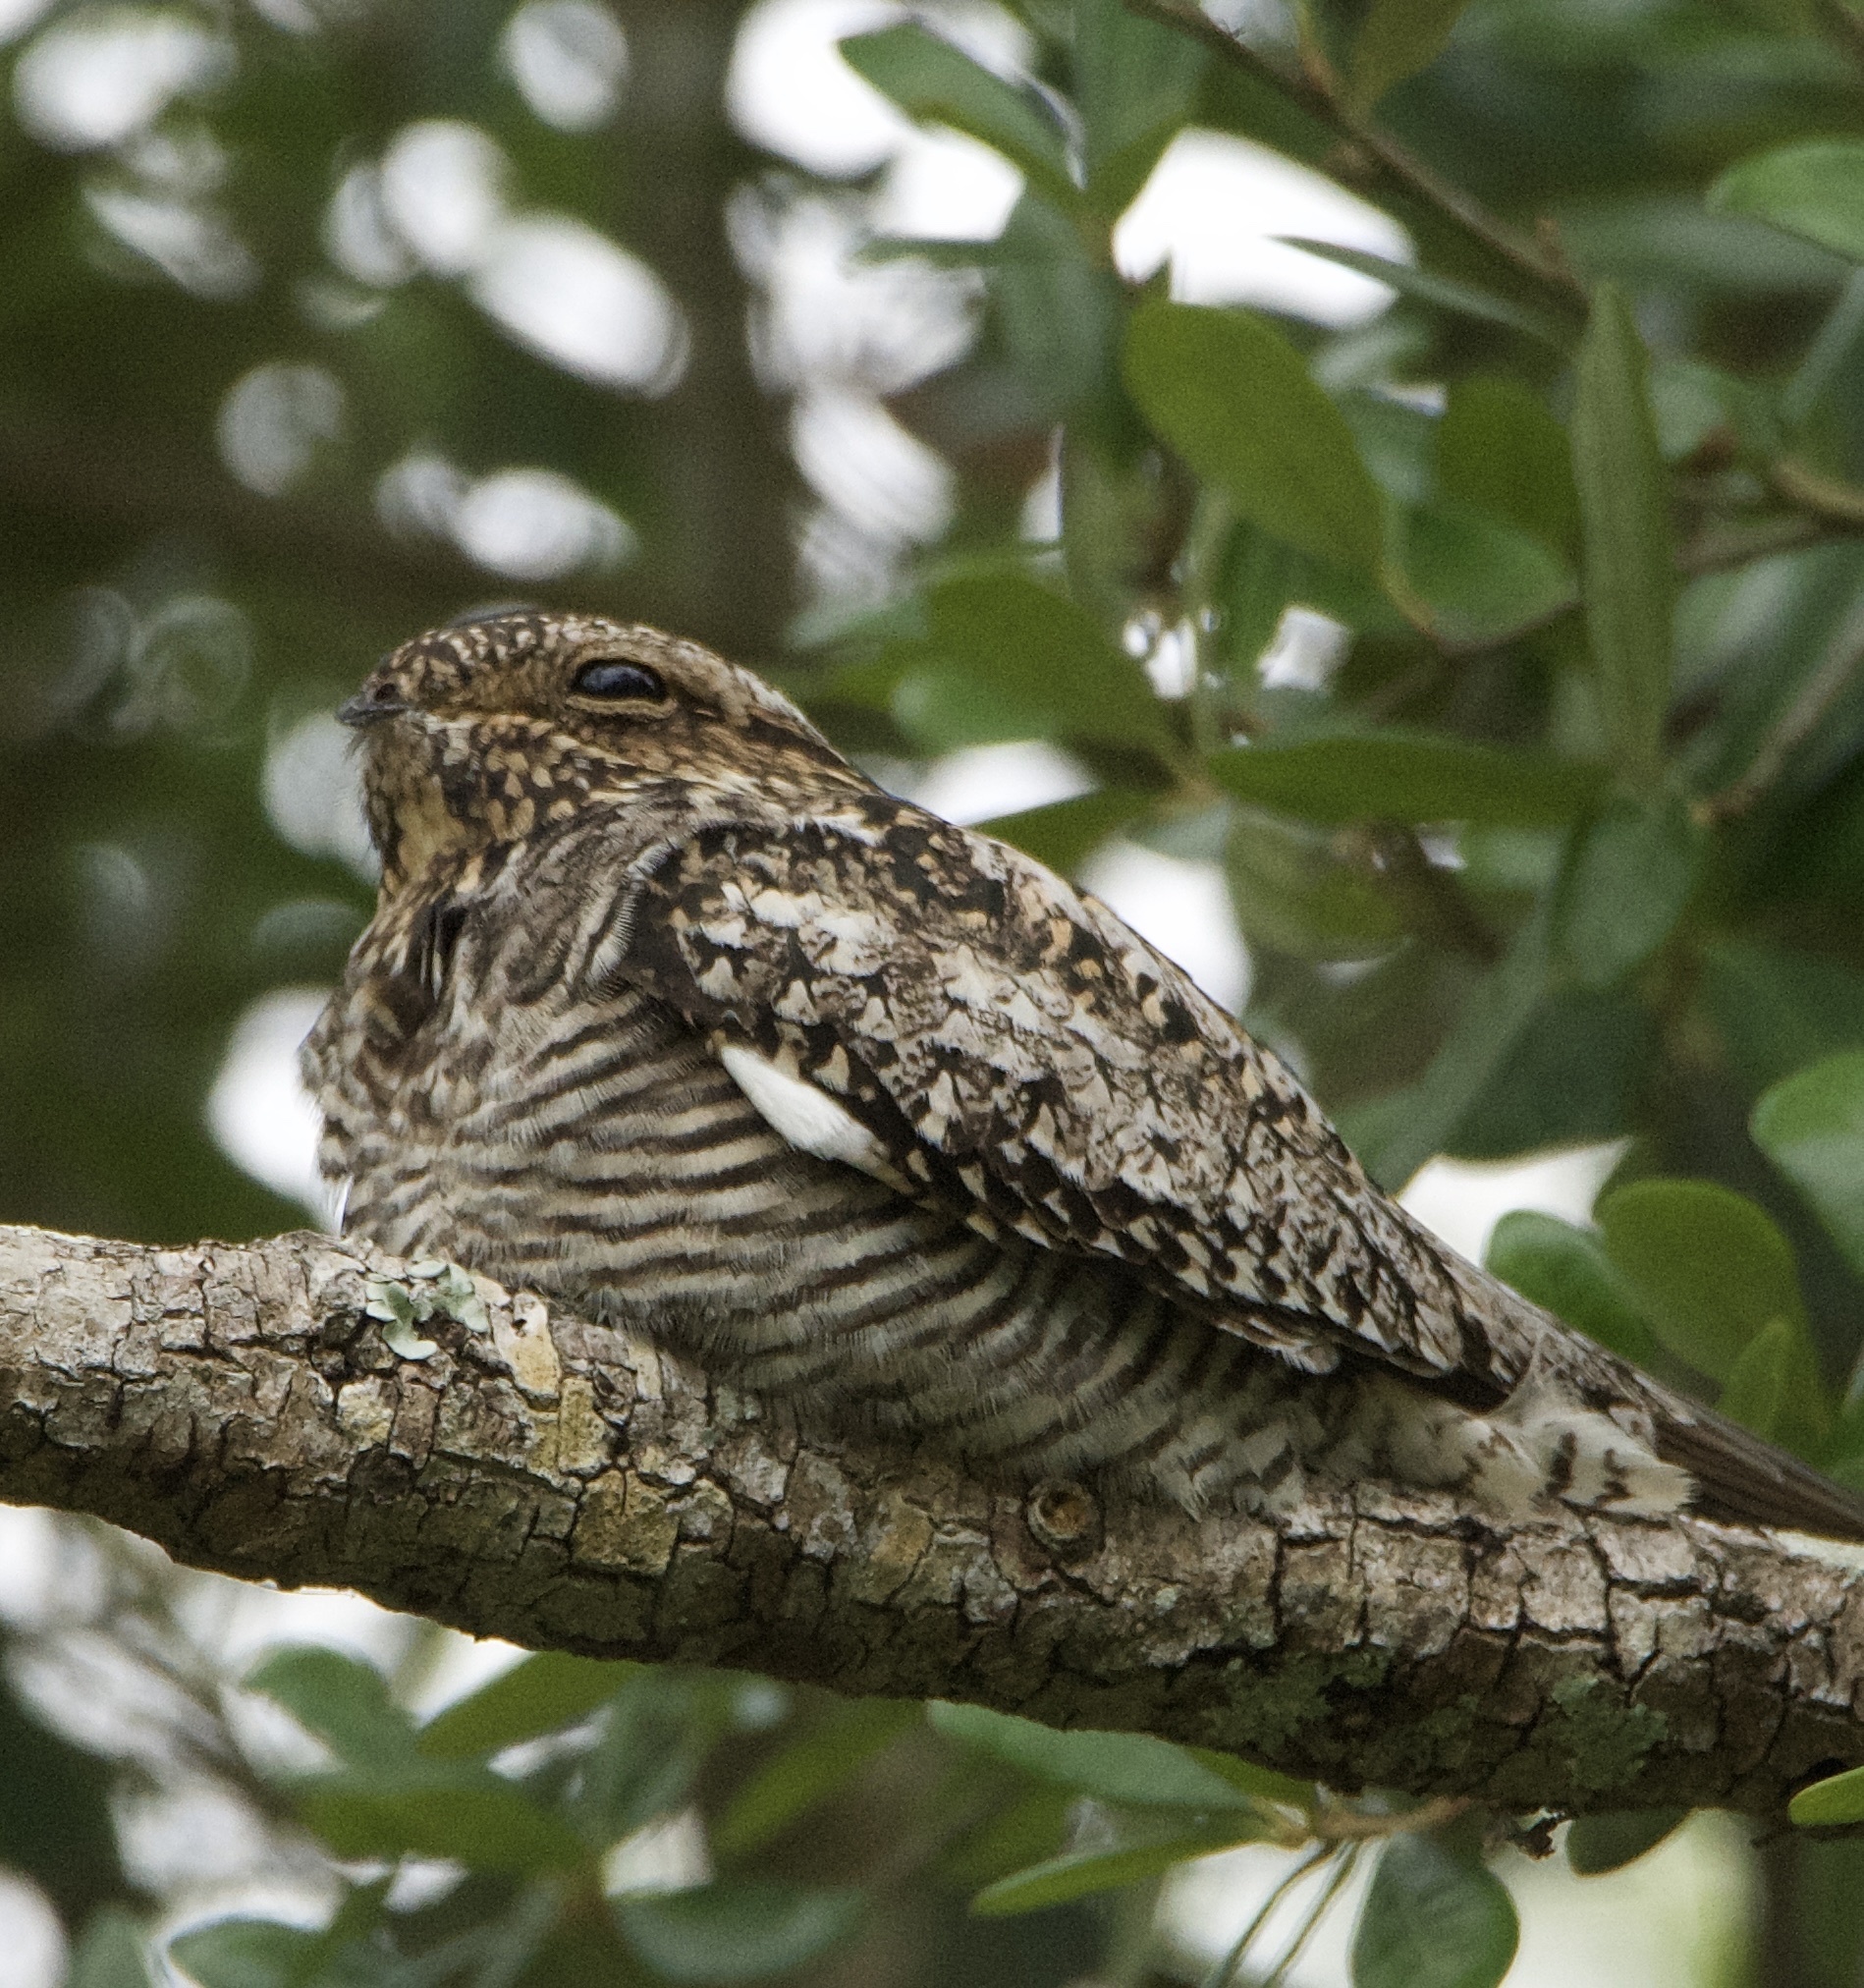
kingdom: Animalia
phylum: Chordata
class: Aves
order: Caprimulgiformes
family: Caprimulgidae
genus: Chordeiles
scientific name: Chordeiles minor
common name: Common nighthawk
